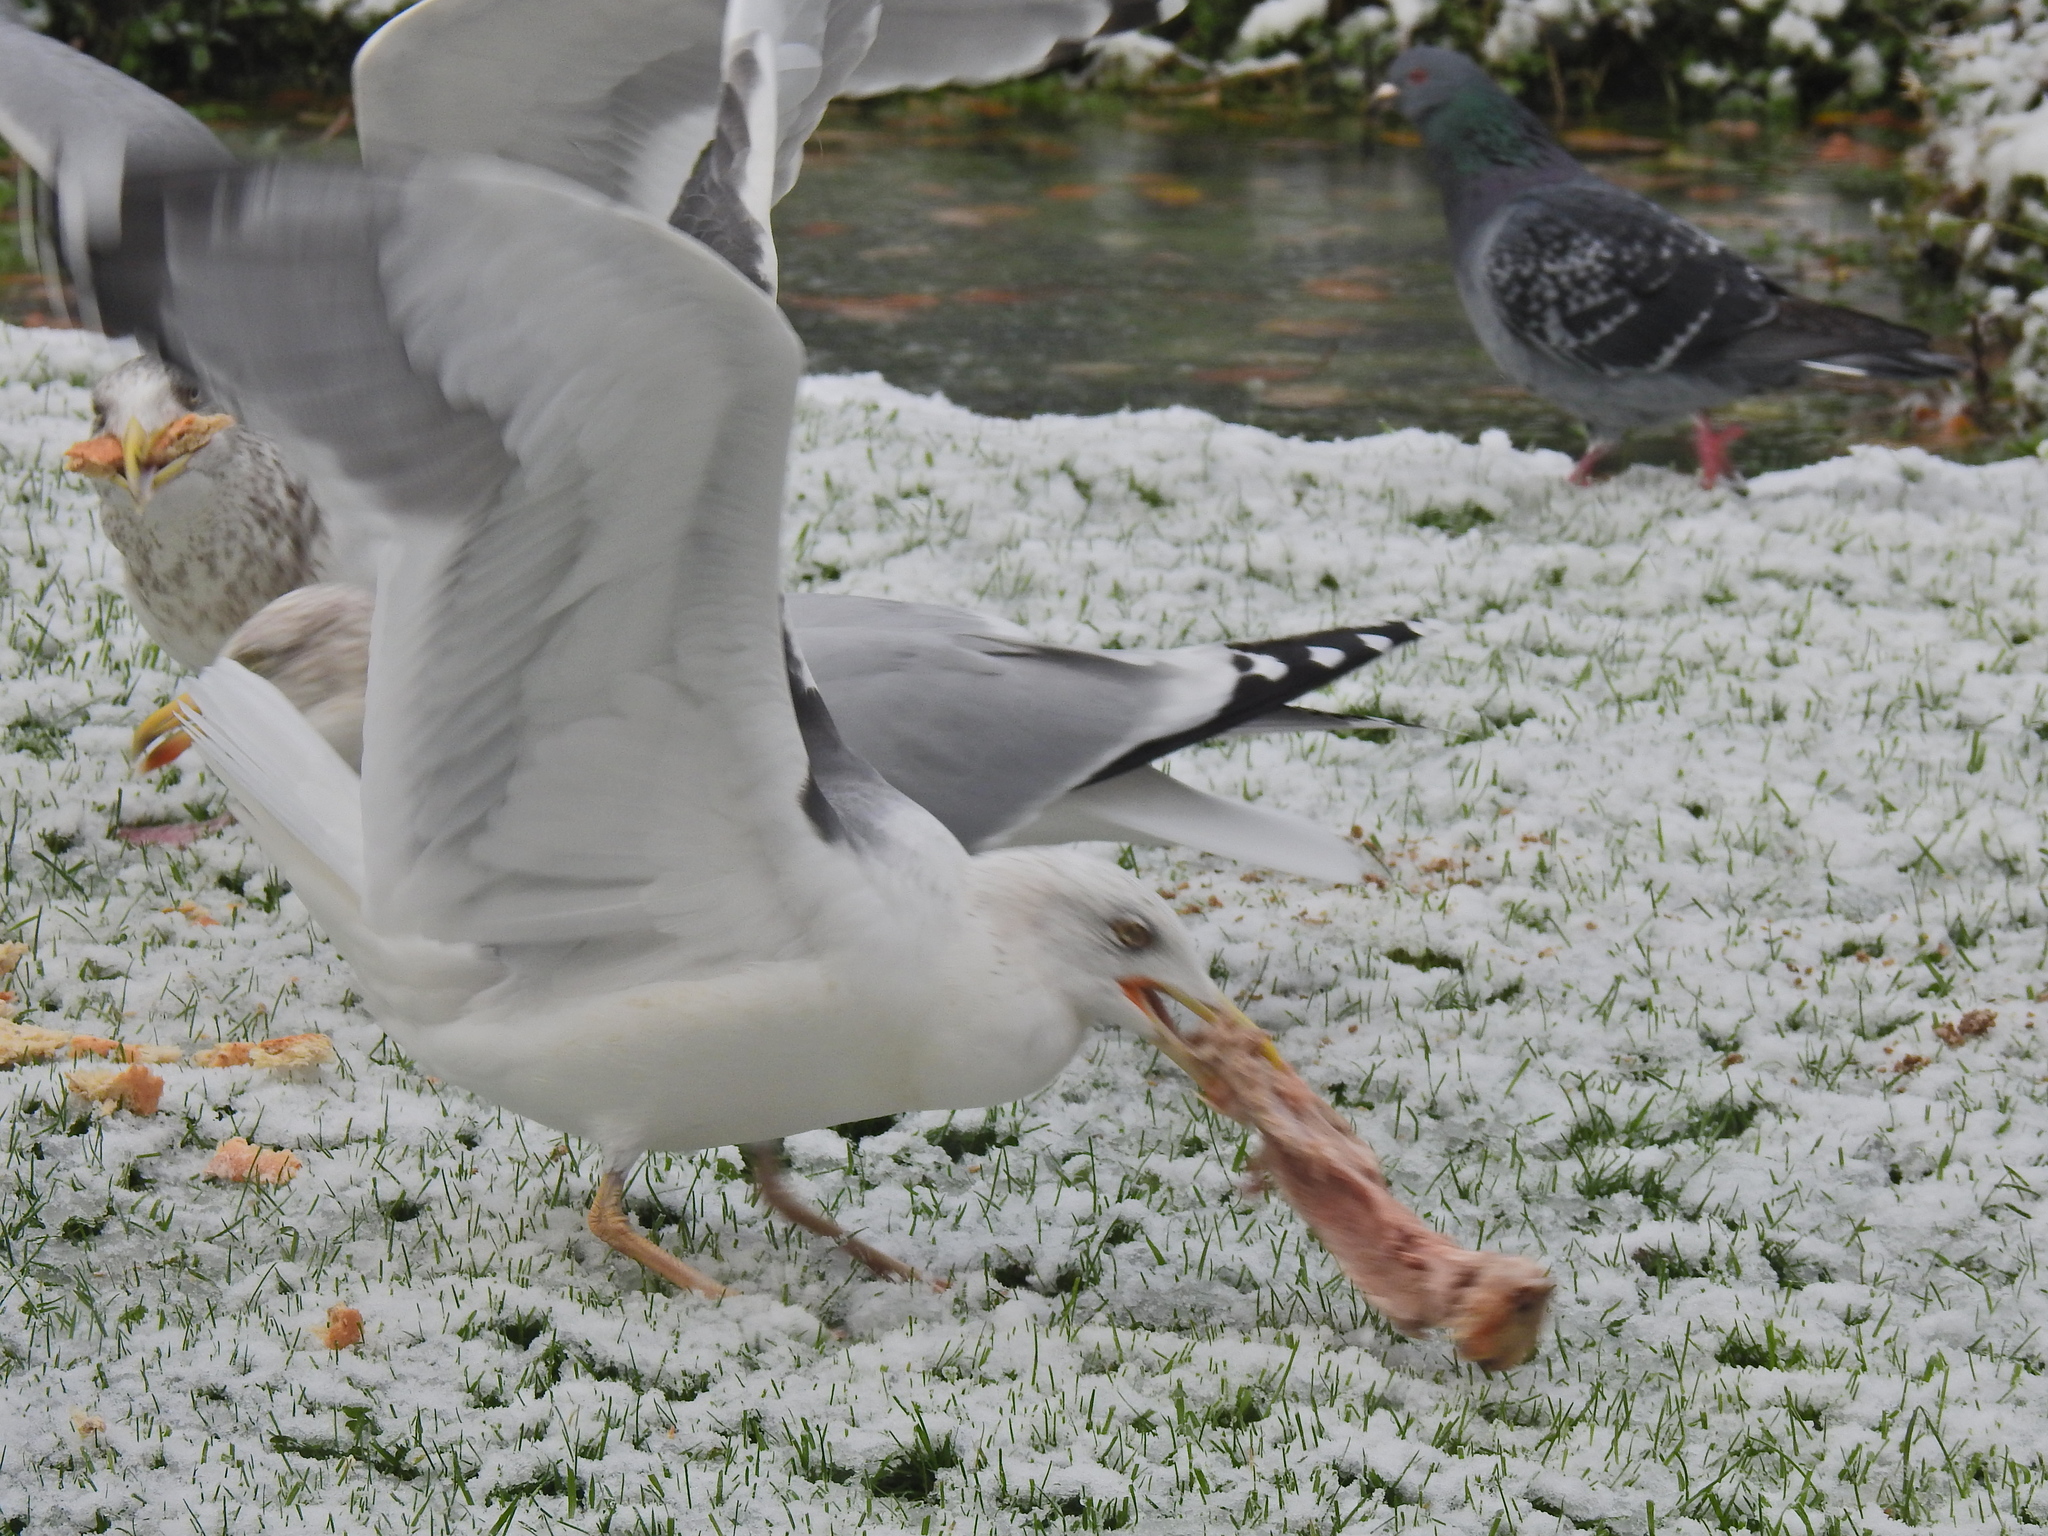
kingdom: Animalia
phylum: Chordata
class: Aves
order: Charadriiformes
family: Laridae
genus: Larus
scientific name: Larus fuscus
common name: Lesser black-backed gull
